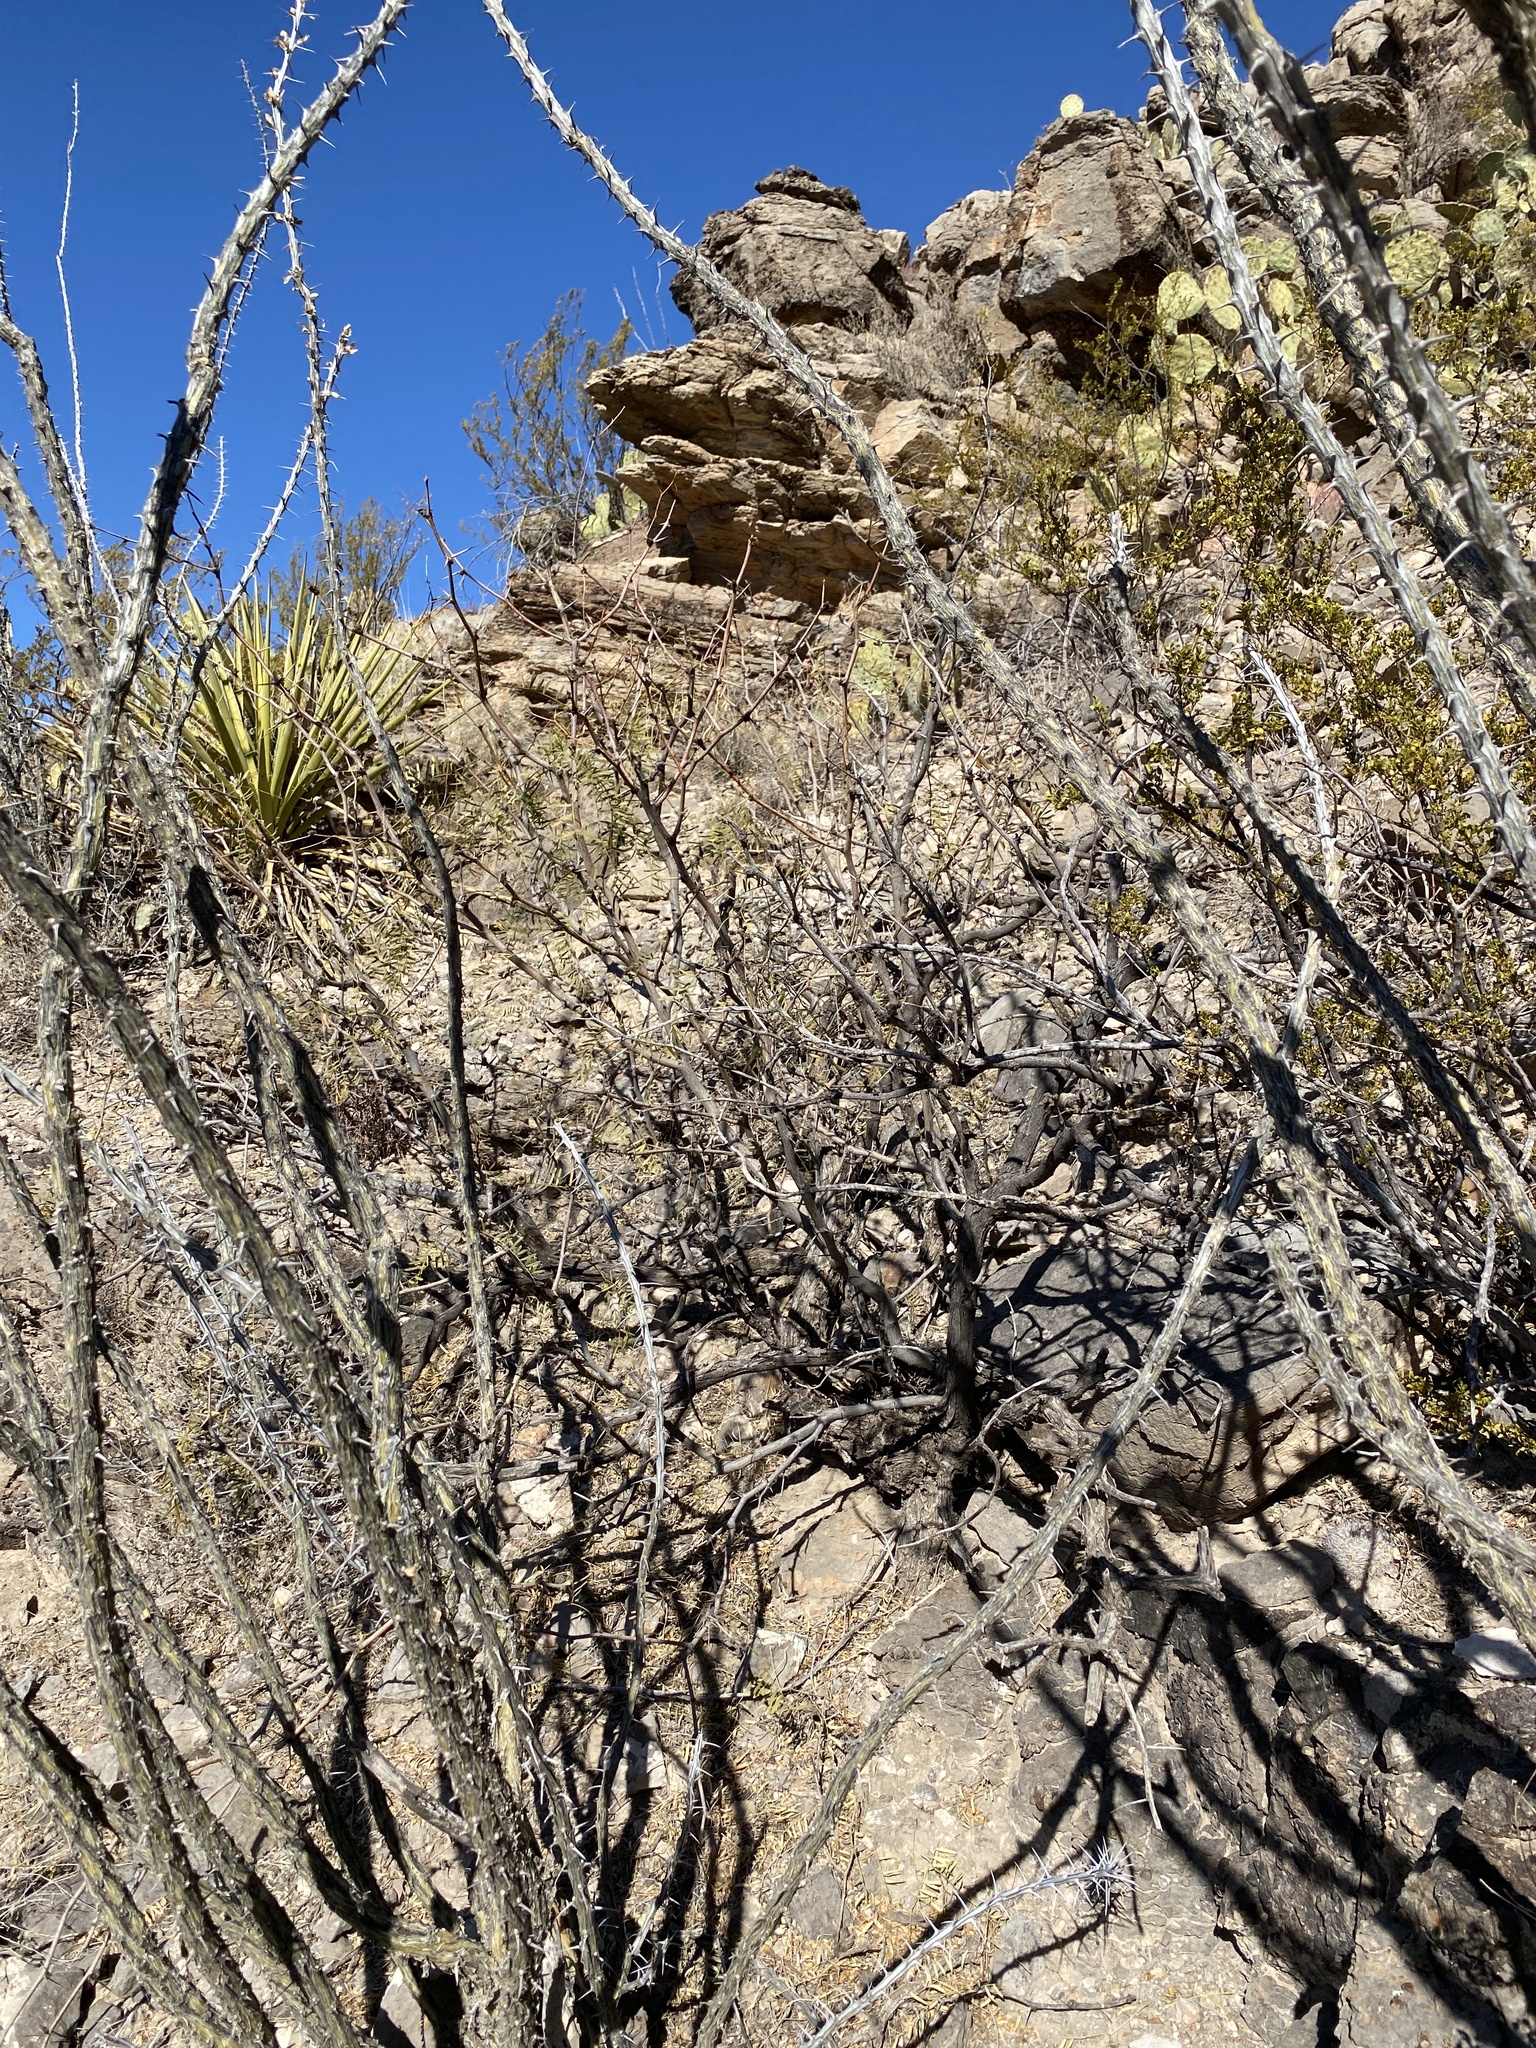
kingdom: Plantae
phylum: Tracheophyta
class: Magnoliopsida
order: Ericales
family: Fouquieriaceae
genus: Fouquieria
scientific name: Fouquieria splendens
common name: Vine-cactus
